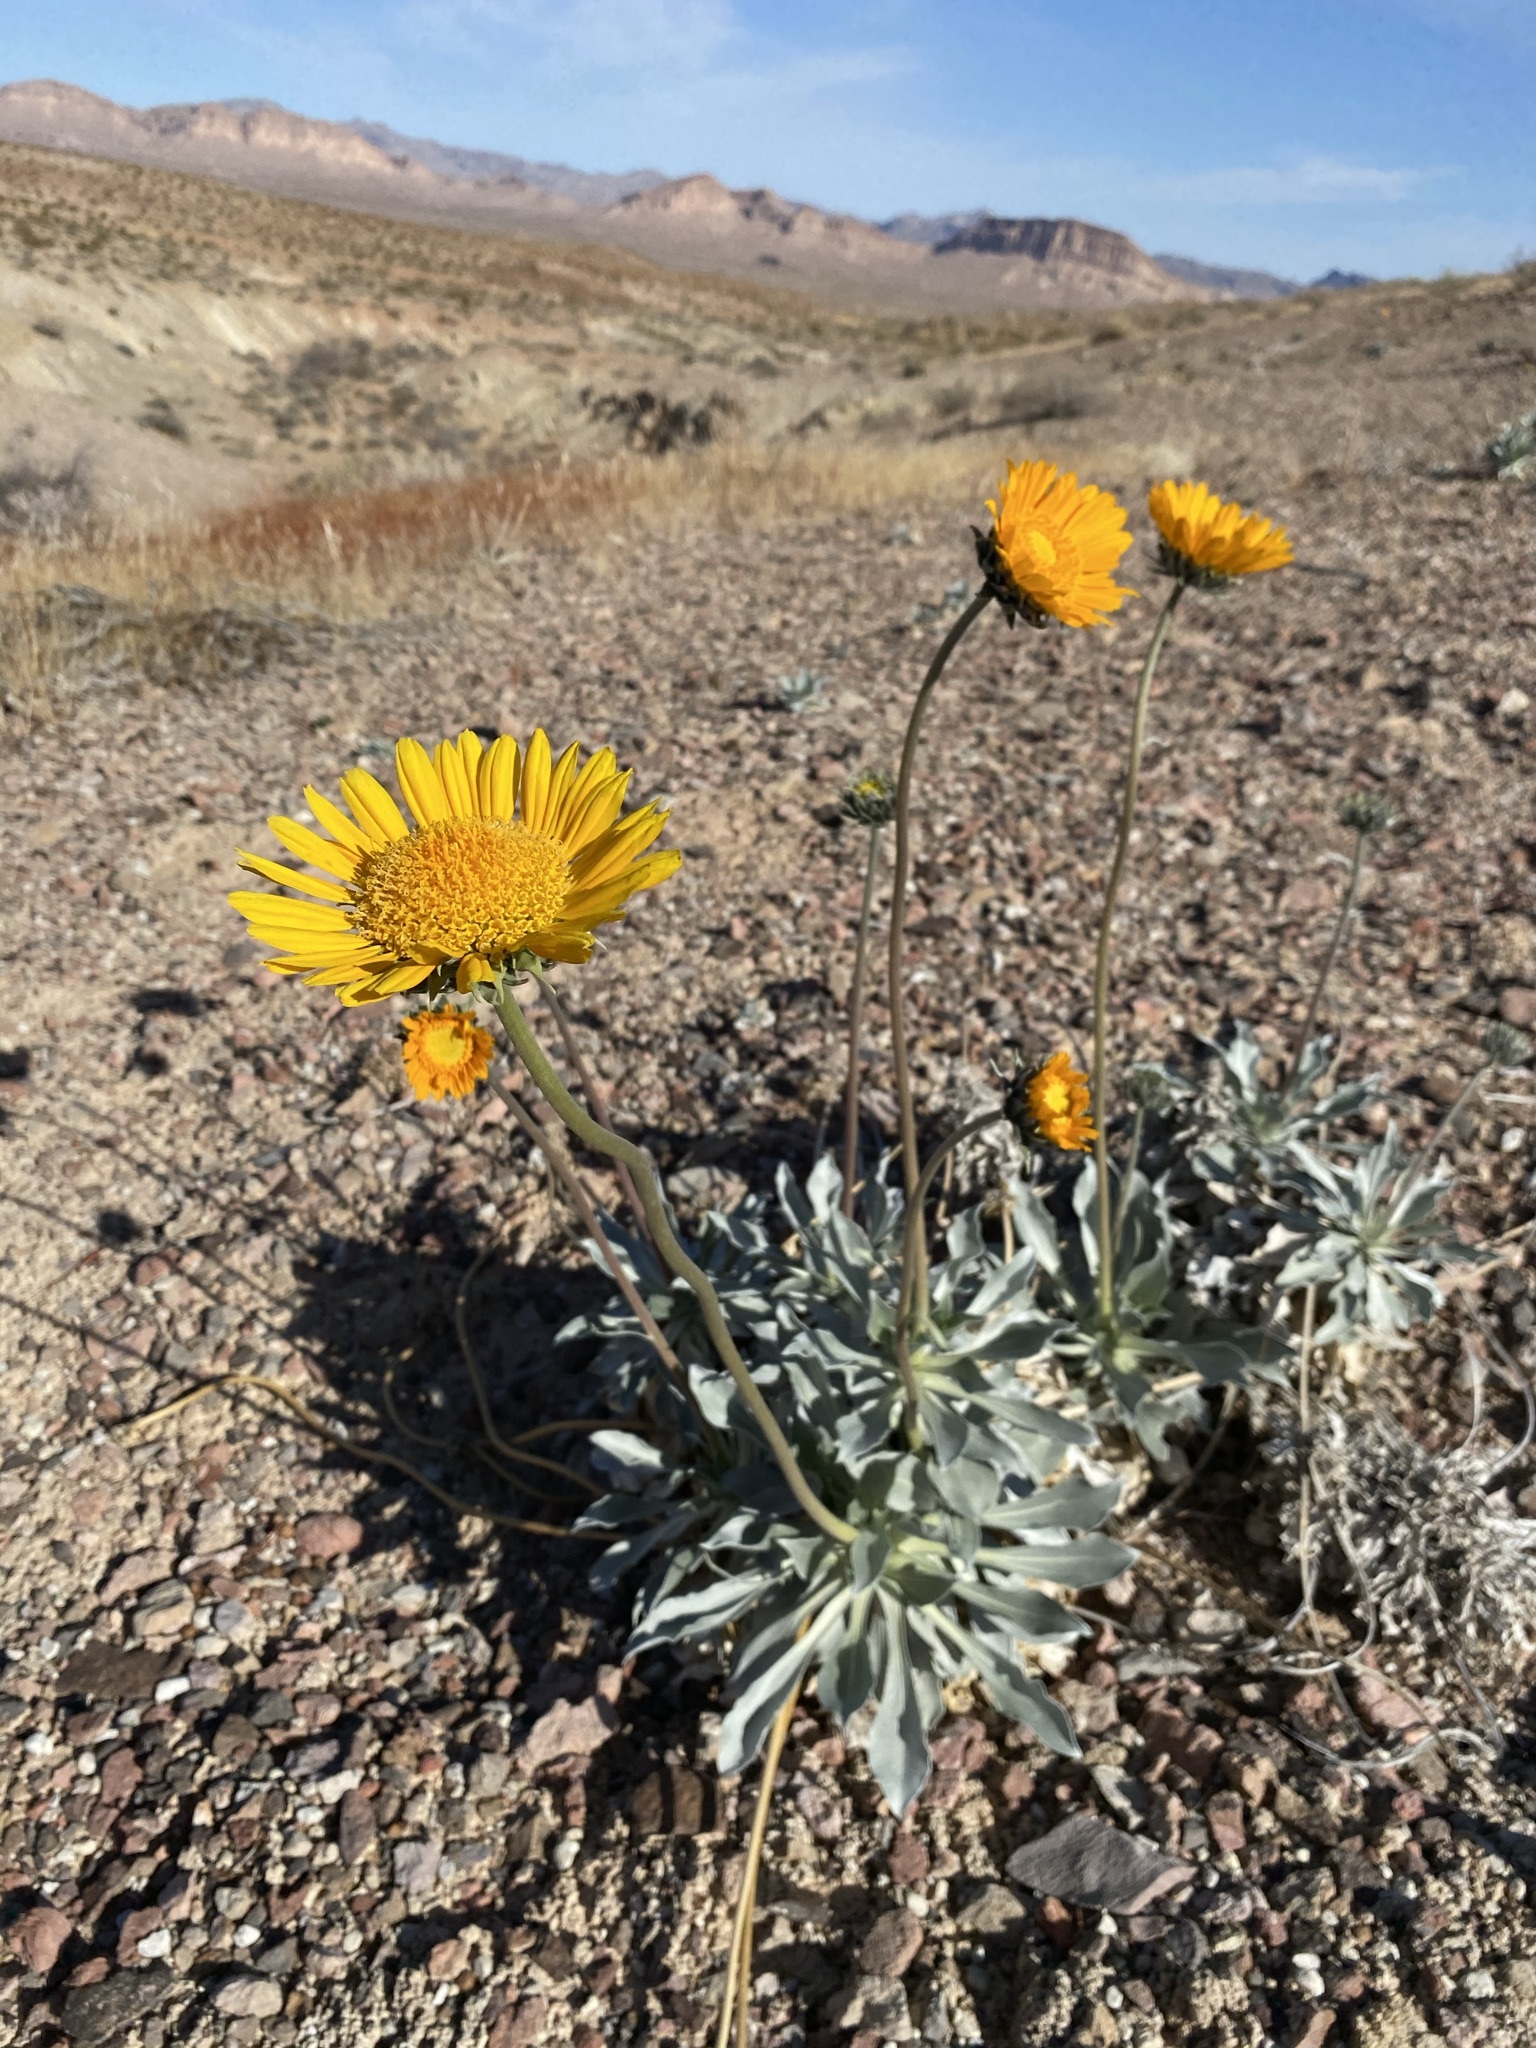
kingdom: Plantae
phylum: Tracheophyta
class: Magnoliopsida
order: Asterales
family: Asteraceae
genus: Enceliopsis
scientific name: Enceliopsis argophylla
